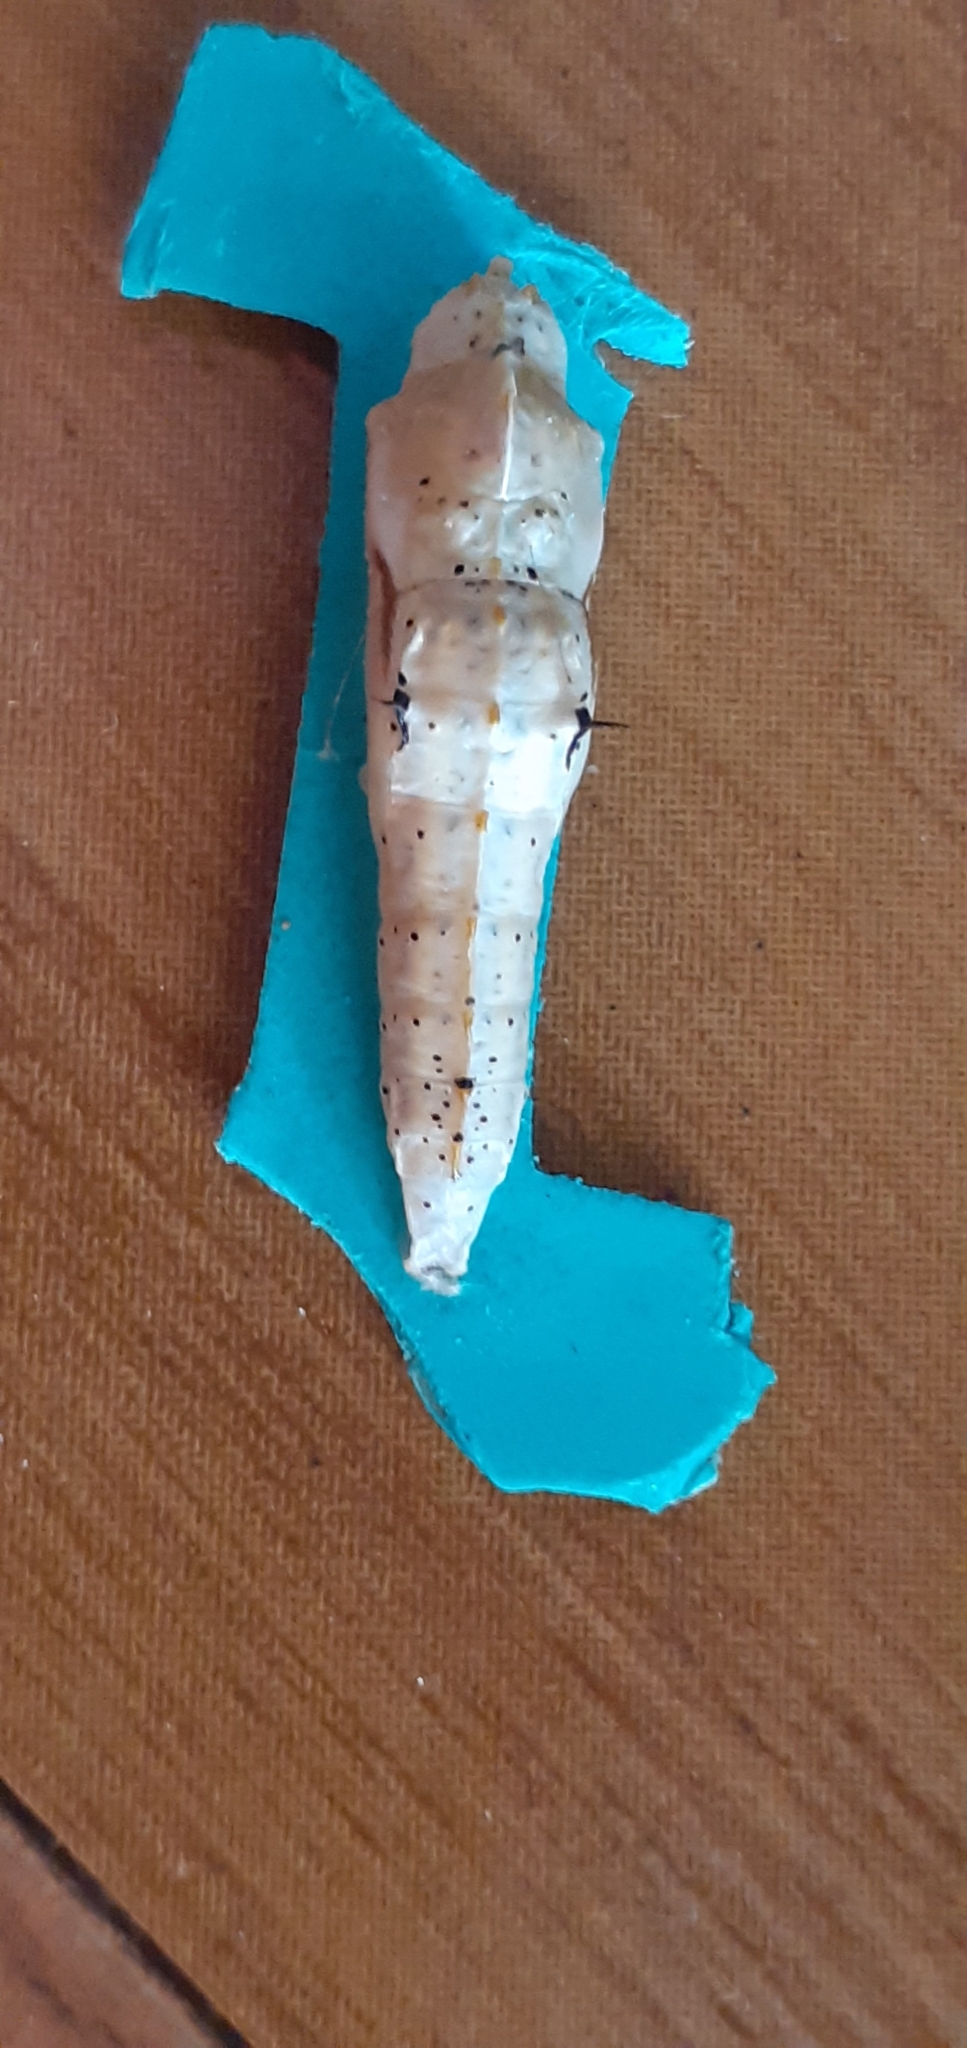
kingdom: Animalia
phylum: Arthropoda
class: Insecta
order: Lepidoptera
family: Pieridae
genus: Ascia
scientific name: Ascia monuste
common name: Great southern white
